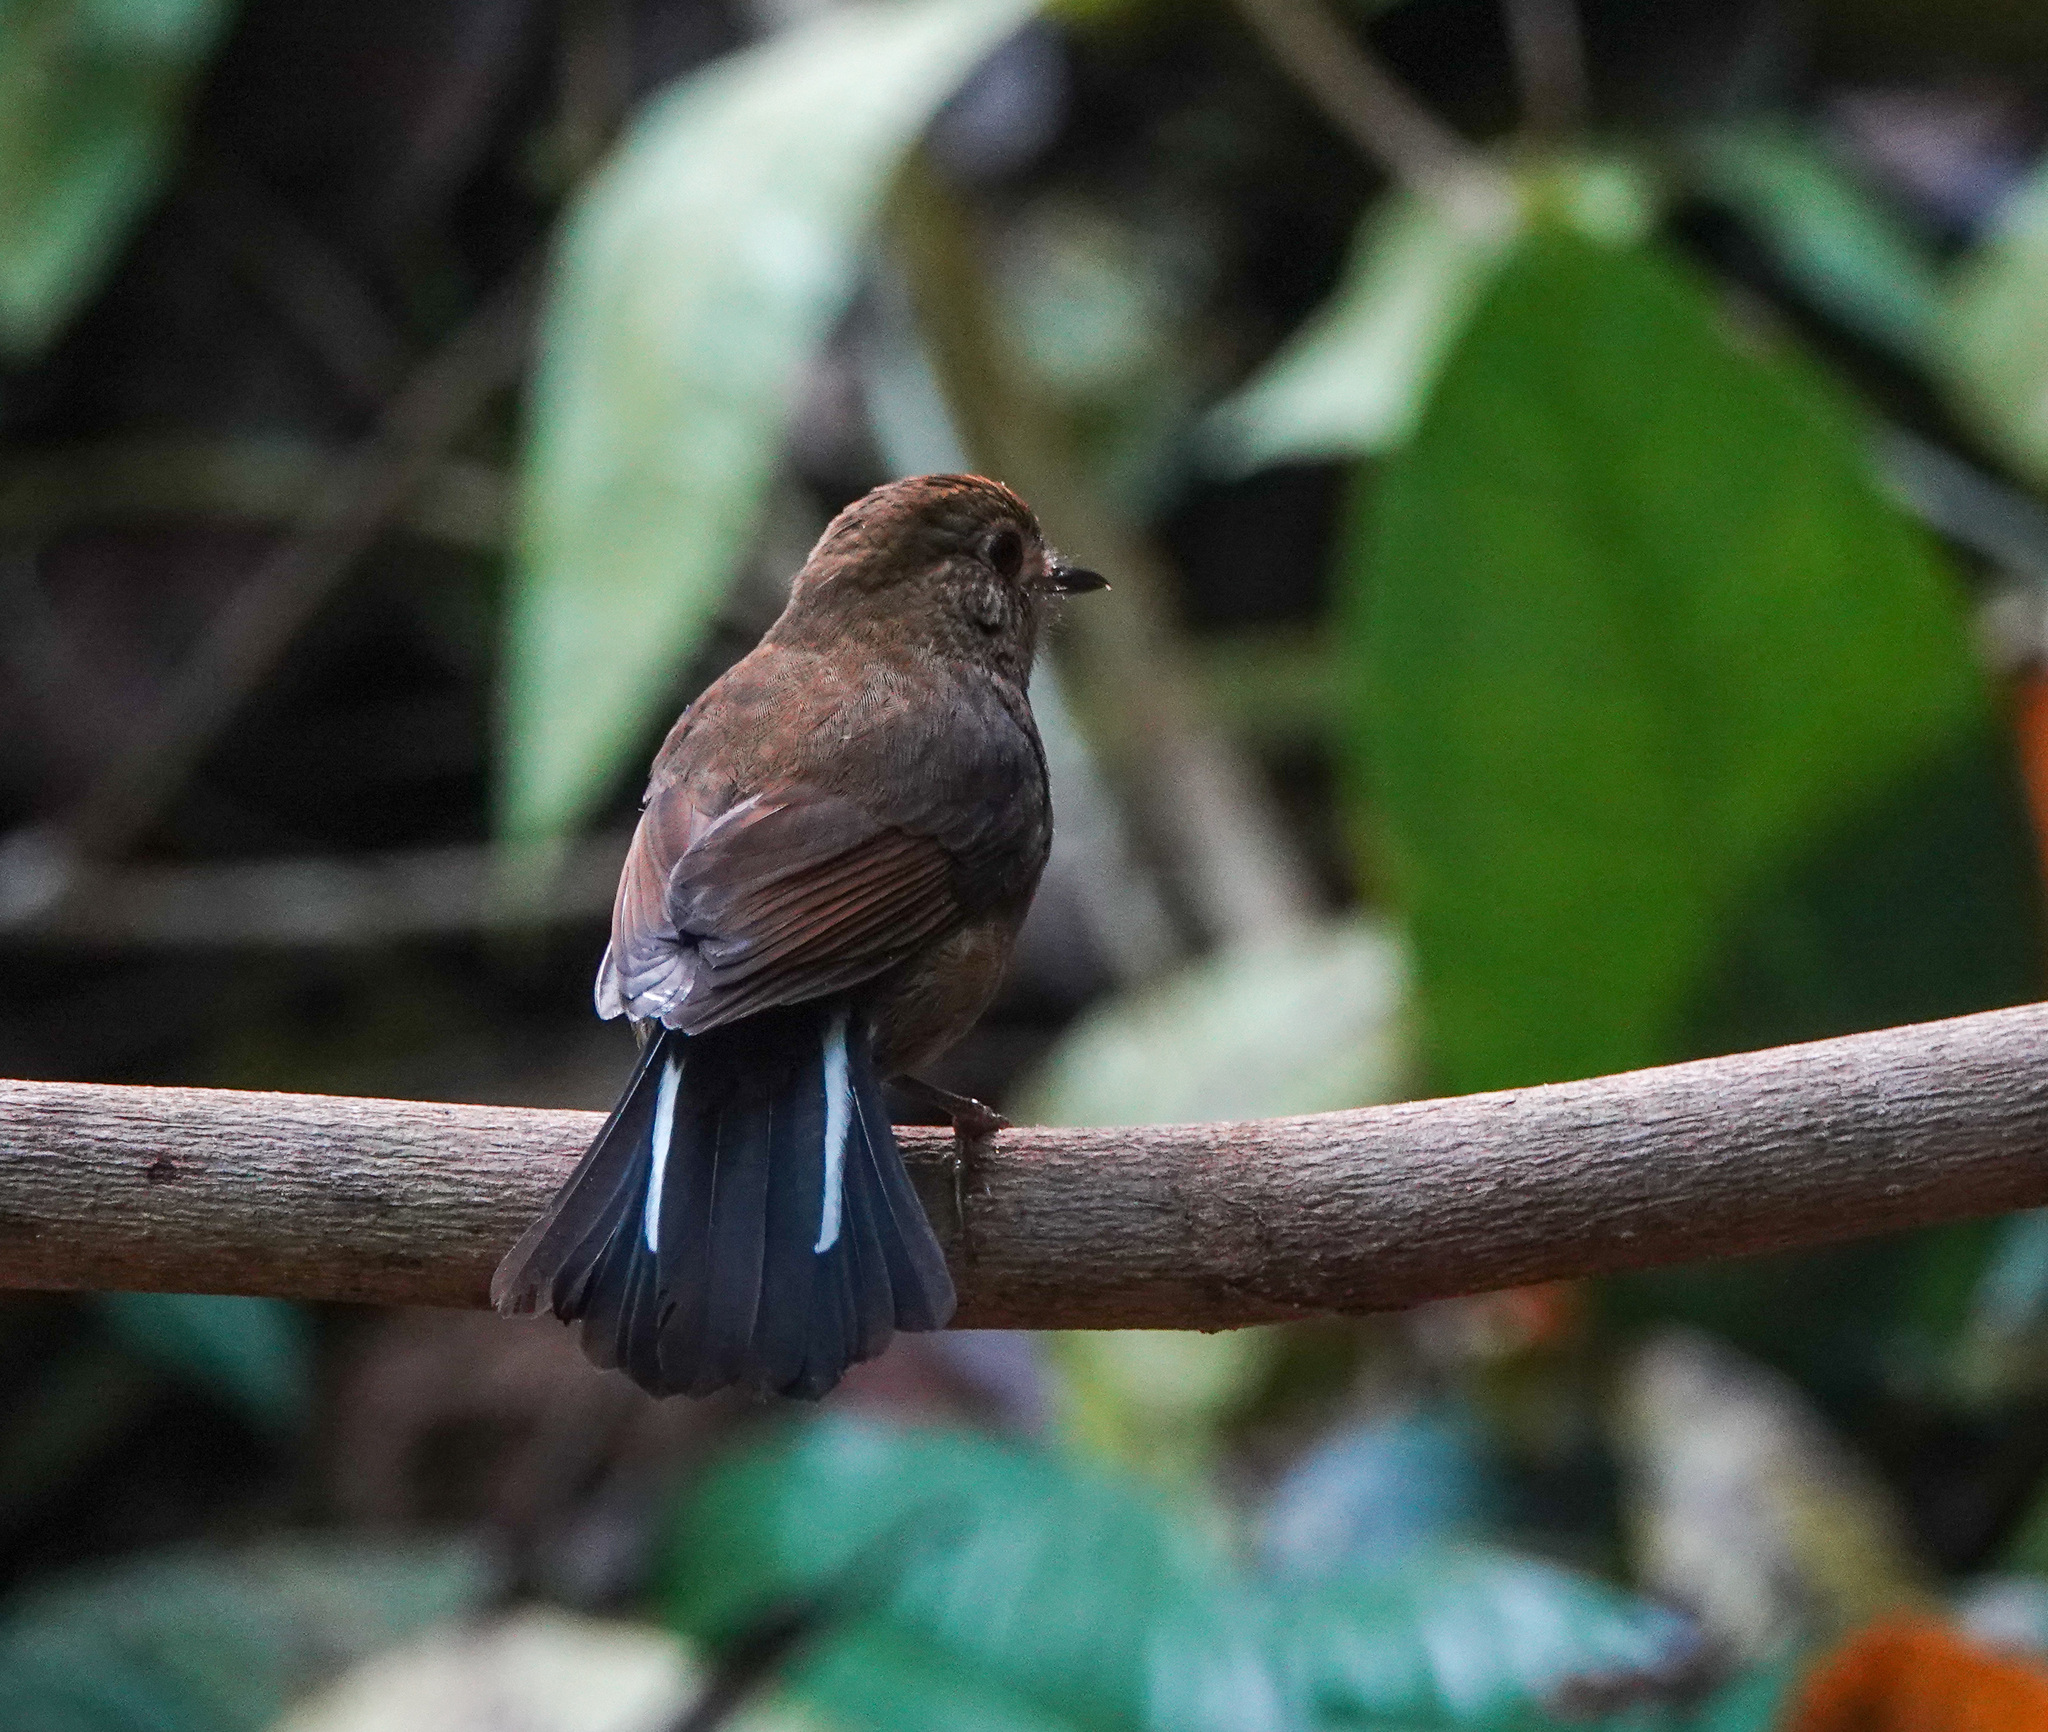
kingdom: Animalia
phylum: Chordata
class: Aves
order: Passeriformes
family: Muscicapidae
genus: Myiomela
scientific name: Myiomela leucura
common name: White-tailed robin
